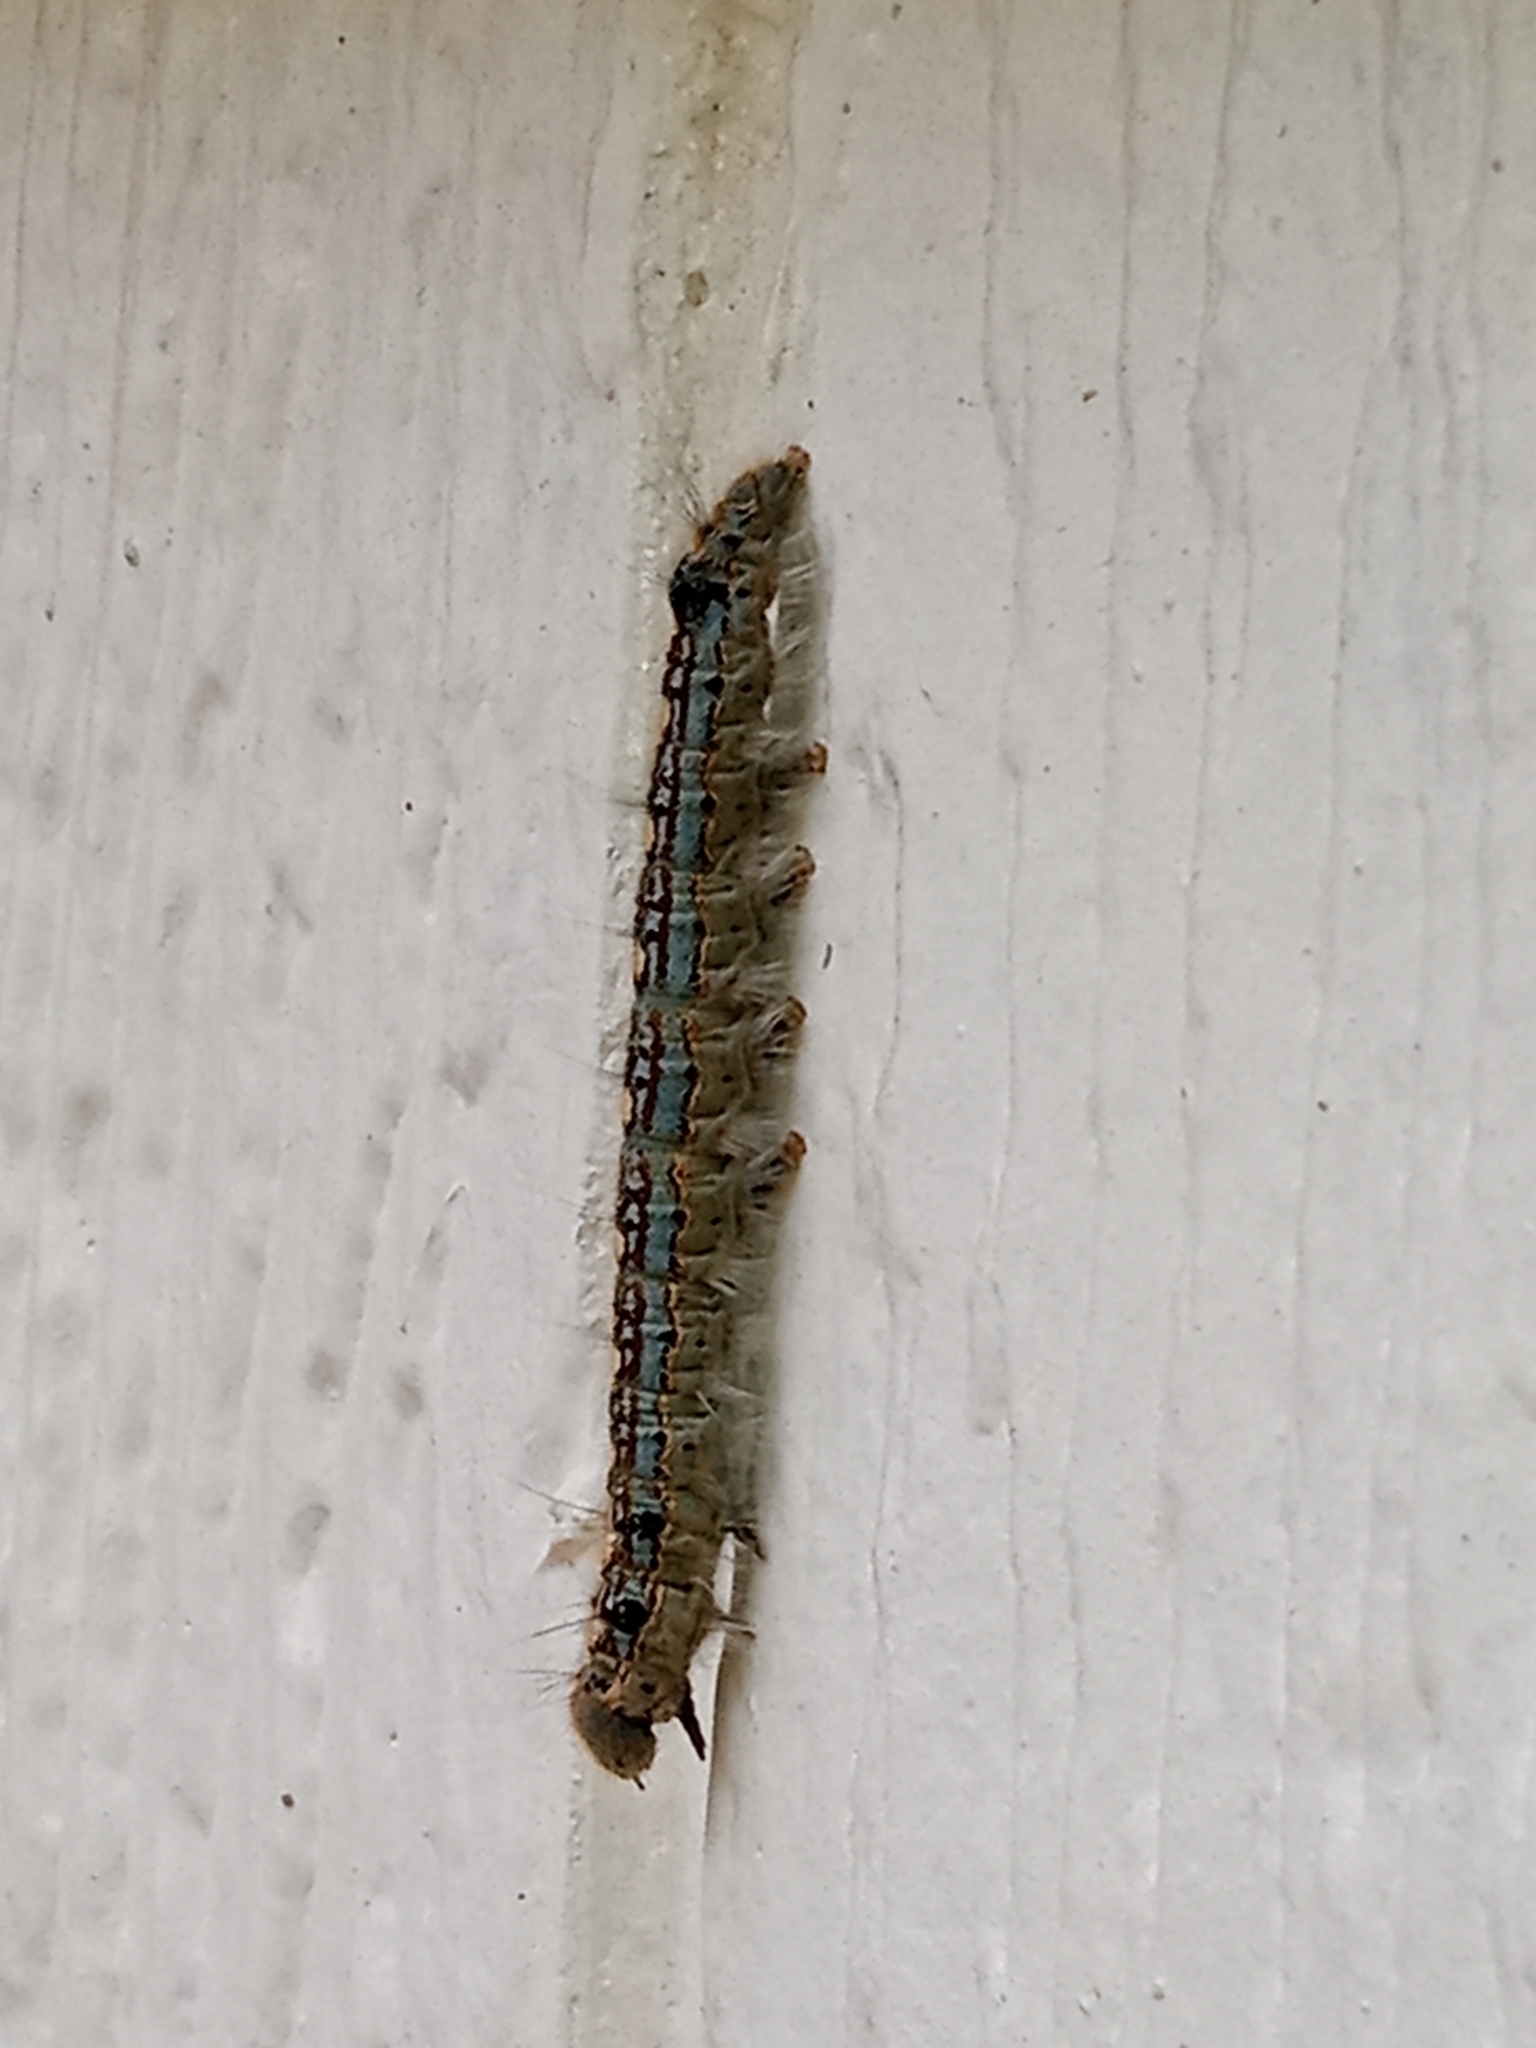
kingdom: Animalia
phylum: Arthropoda
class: Insecta
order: Lepidoptera
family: Lasiocampidae
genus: Malacosoma
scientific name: Malacosoma disstria
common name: Forest tent caterpillar
